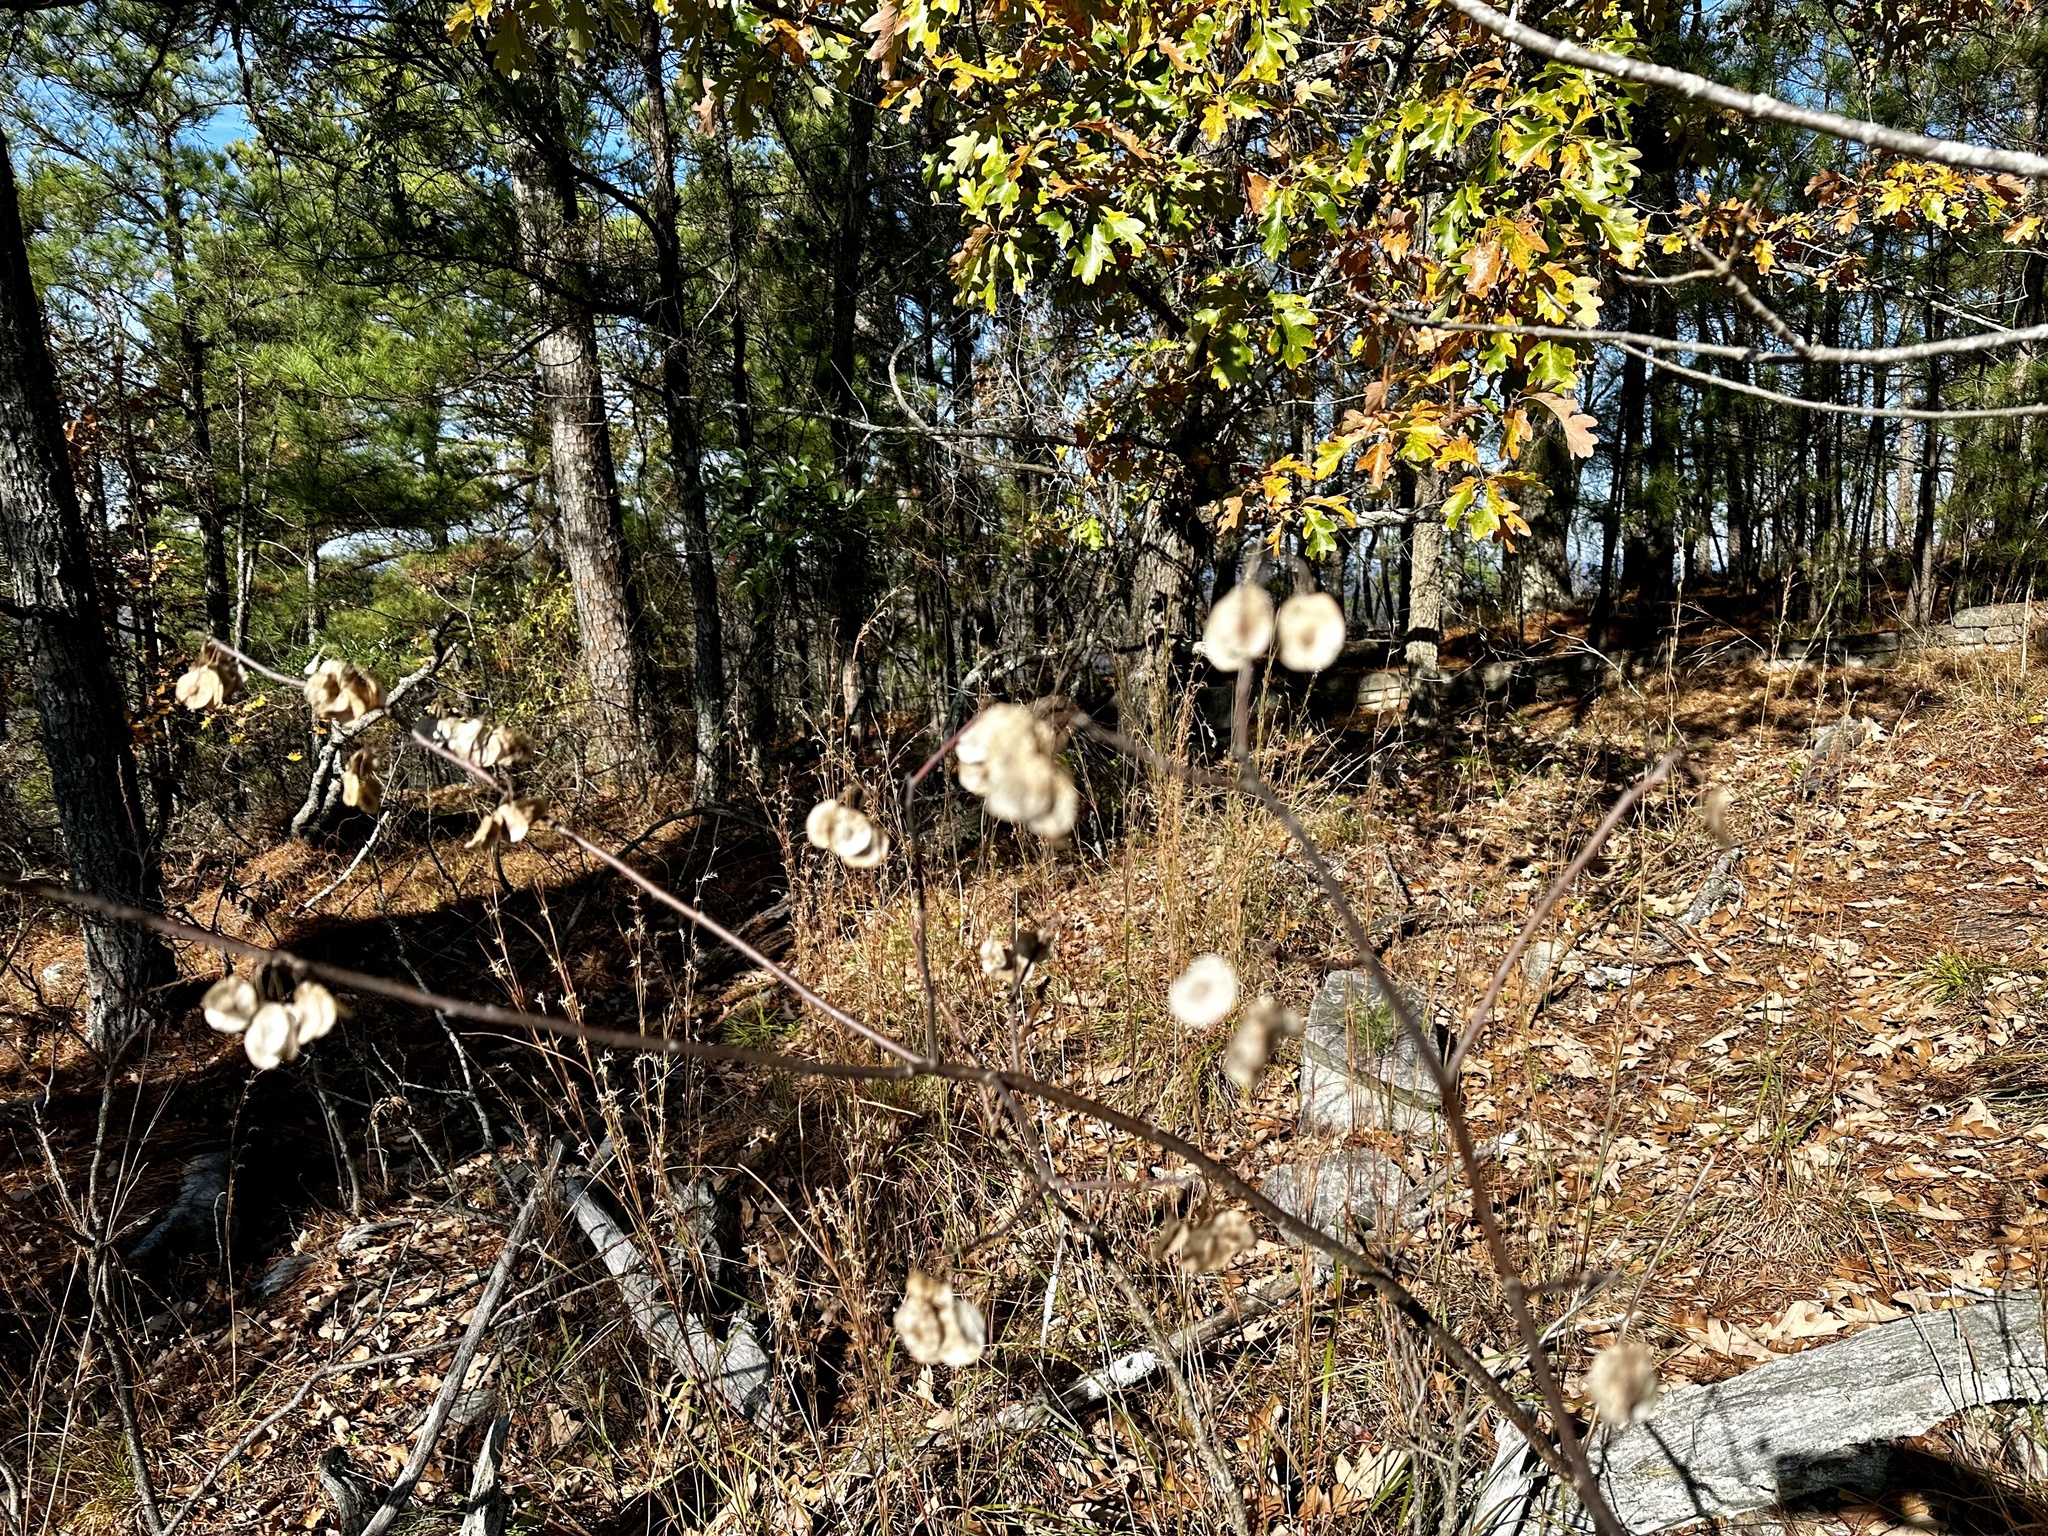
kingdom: Plantae
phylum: Tracheophyta
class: Magnoliopsida
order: Sapindales
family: Rutaceae
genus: Ptelea
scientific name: Ptelea trifoliata
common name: Common hop-tree
